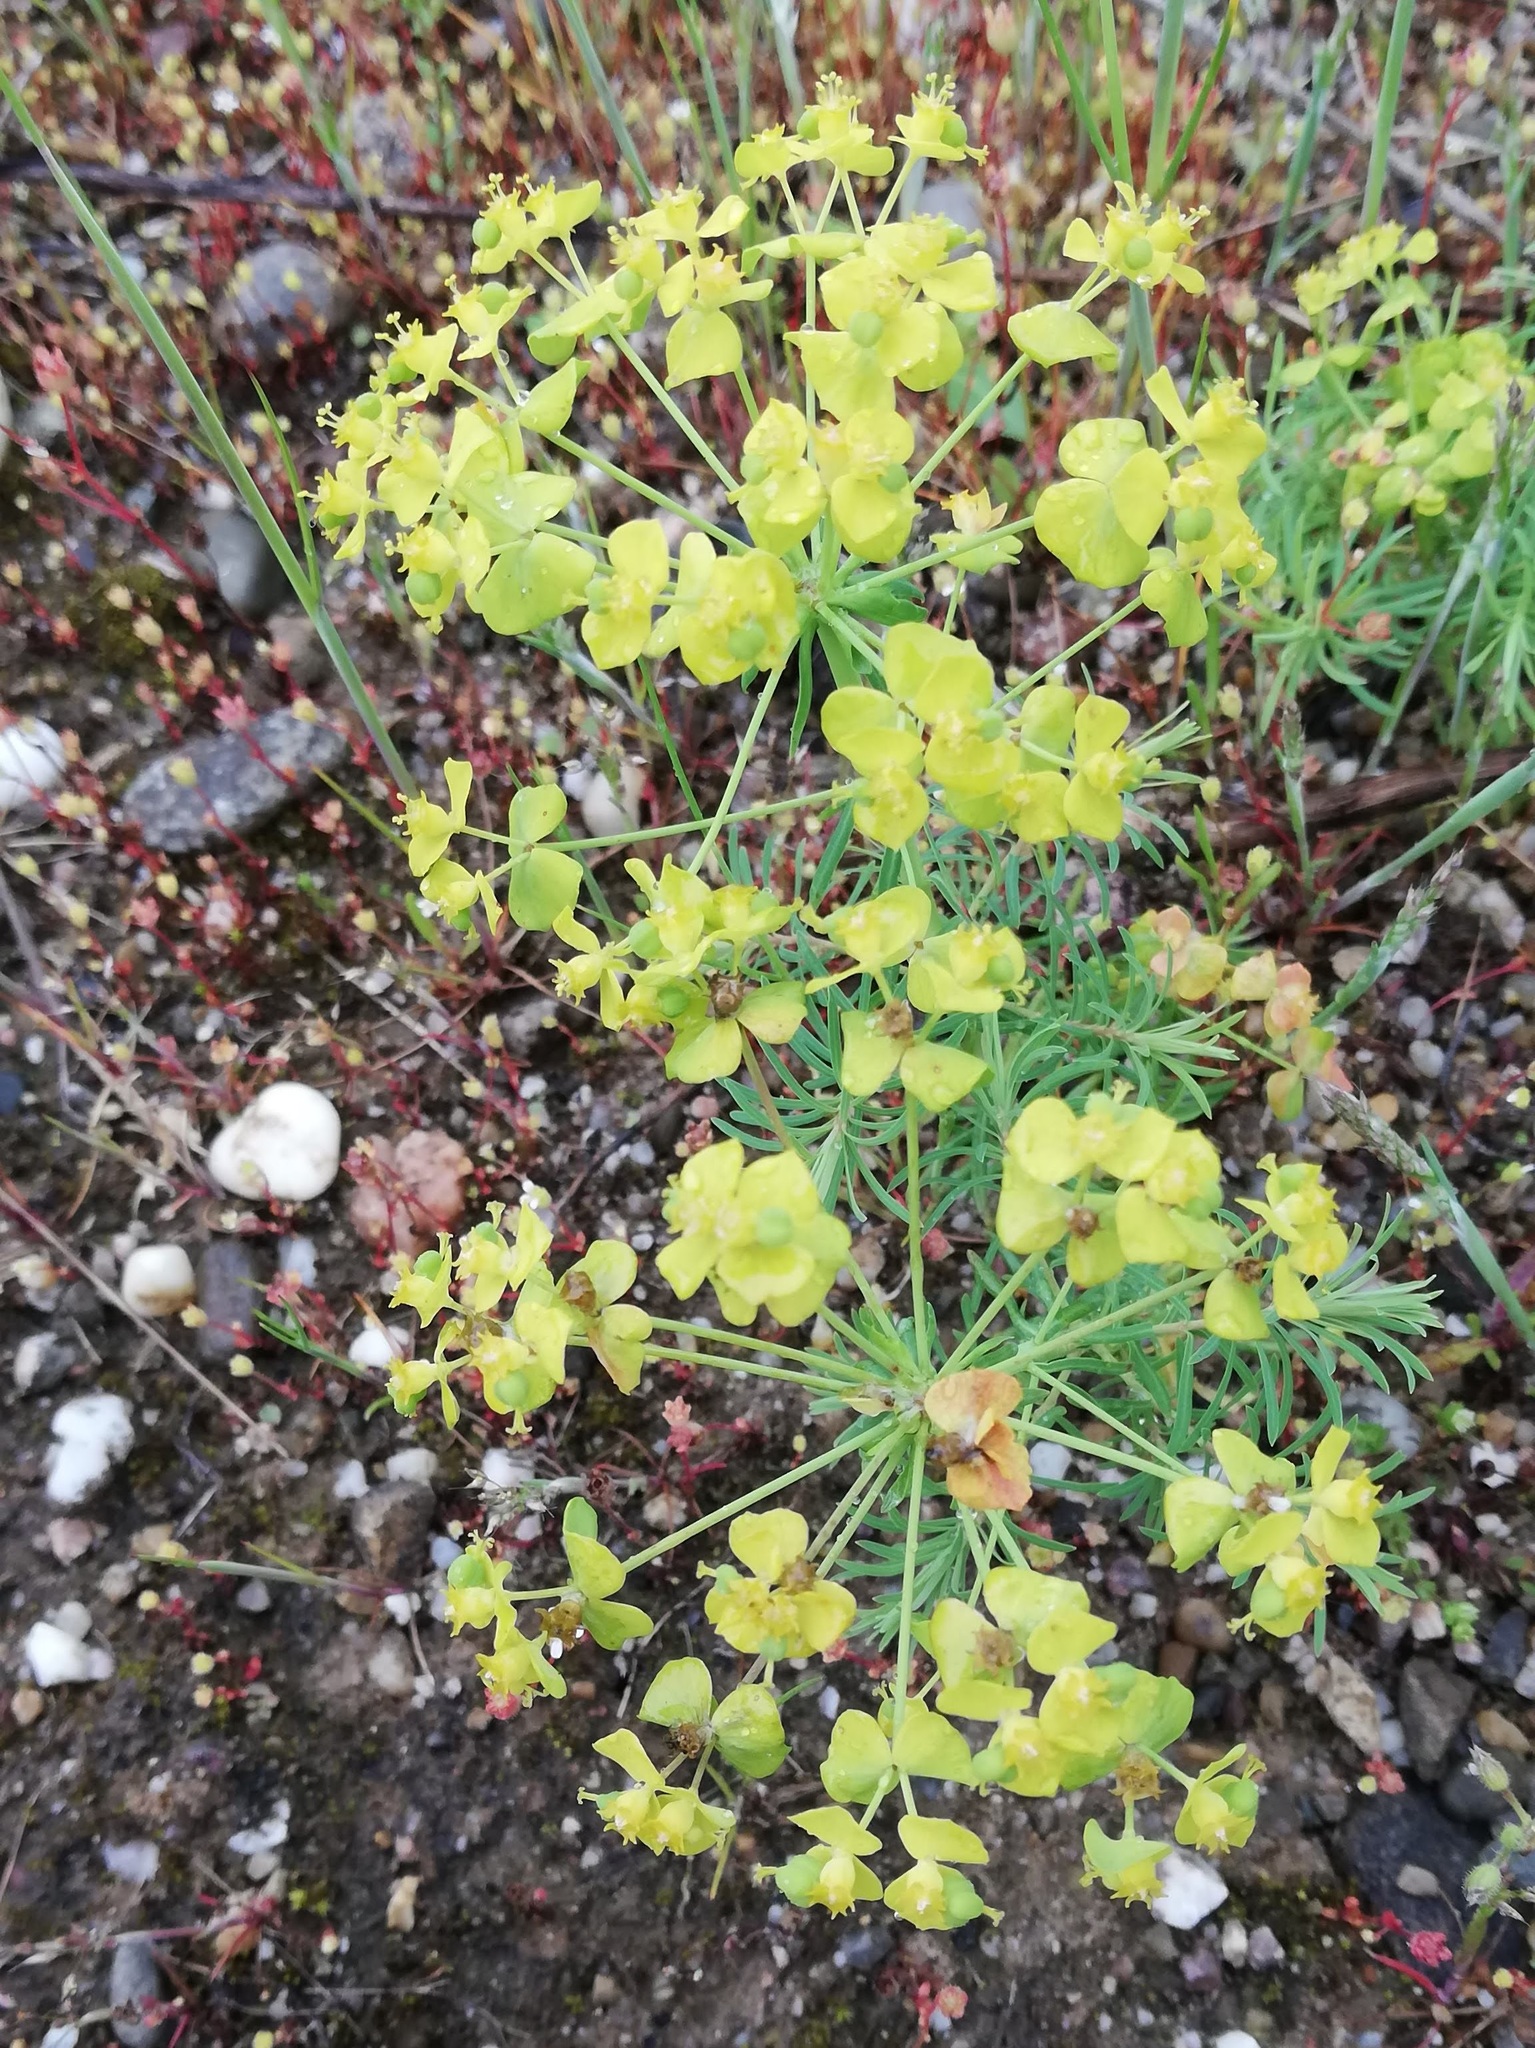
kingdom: Plantae
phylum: Tracheophyta
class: Magnoliopsida
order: Malpighiales
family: Euphorbiaceae
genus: Euphorbia
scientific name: Euphorbia cyparissias
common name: Cypress spurge
